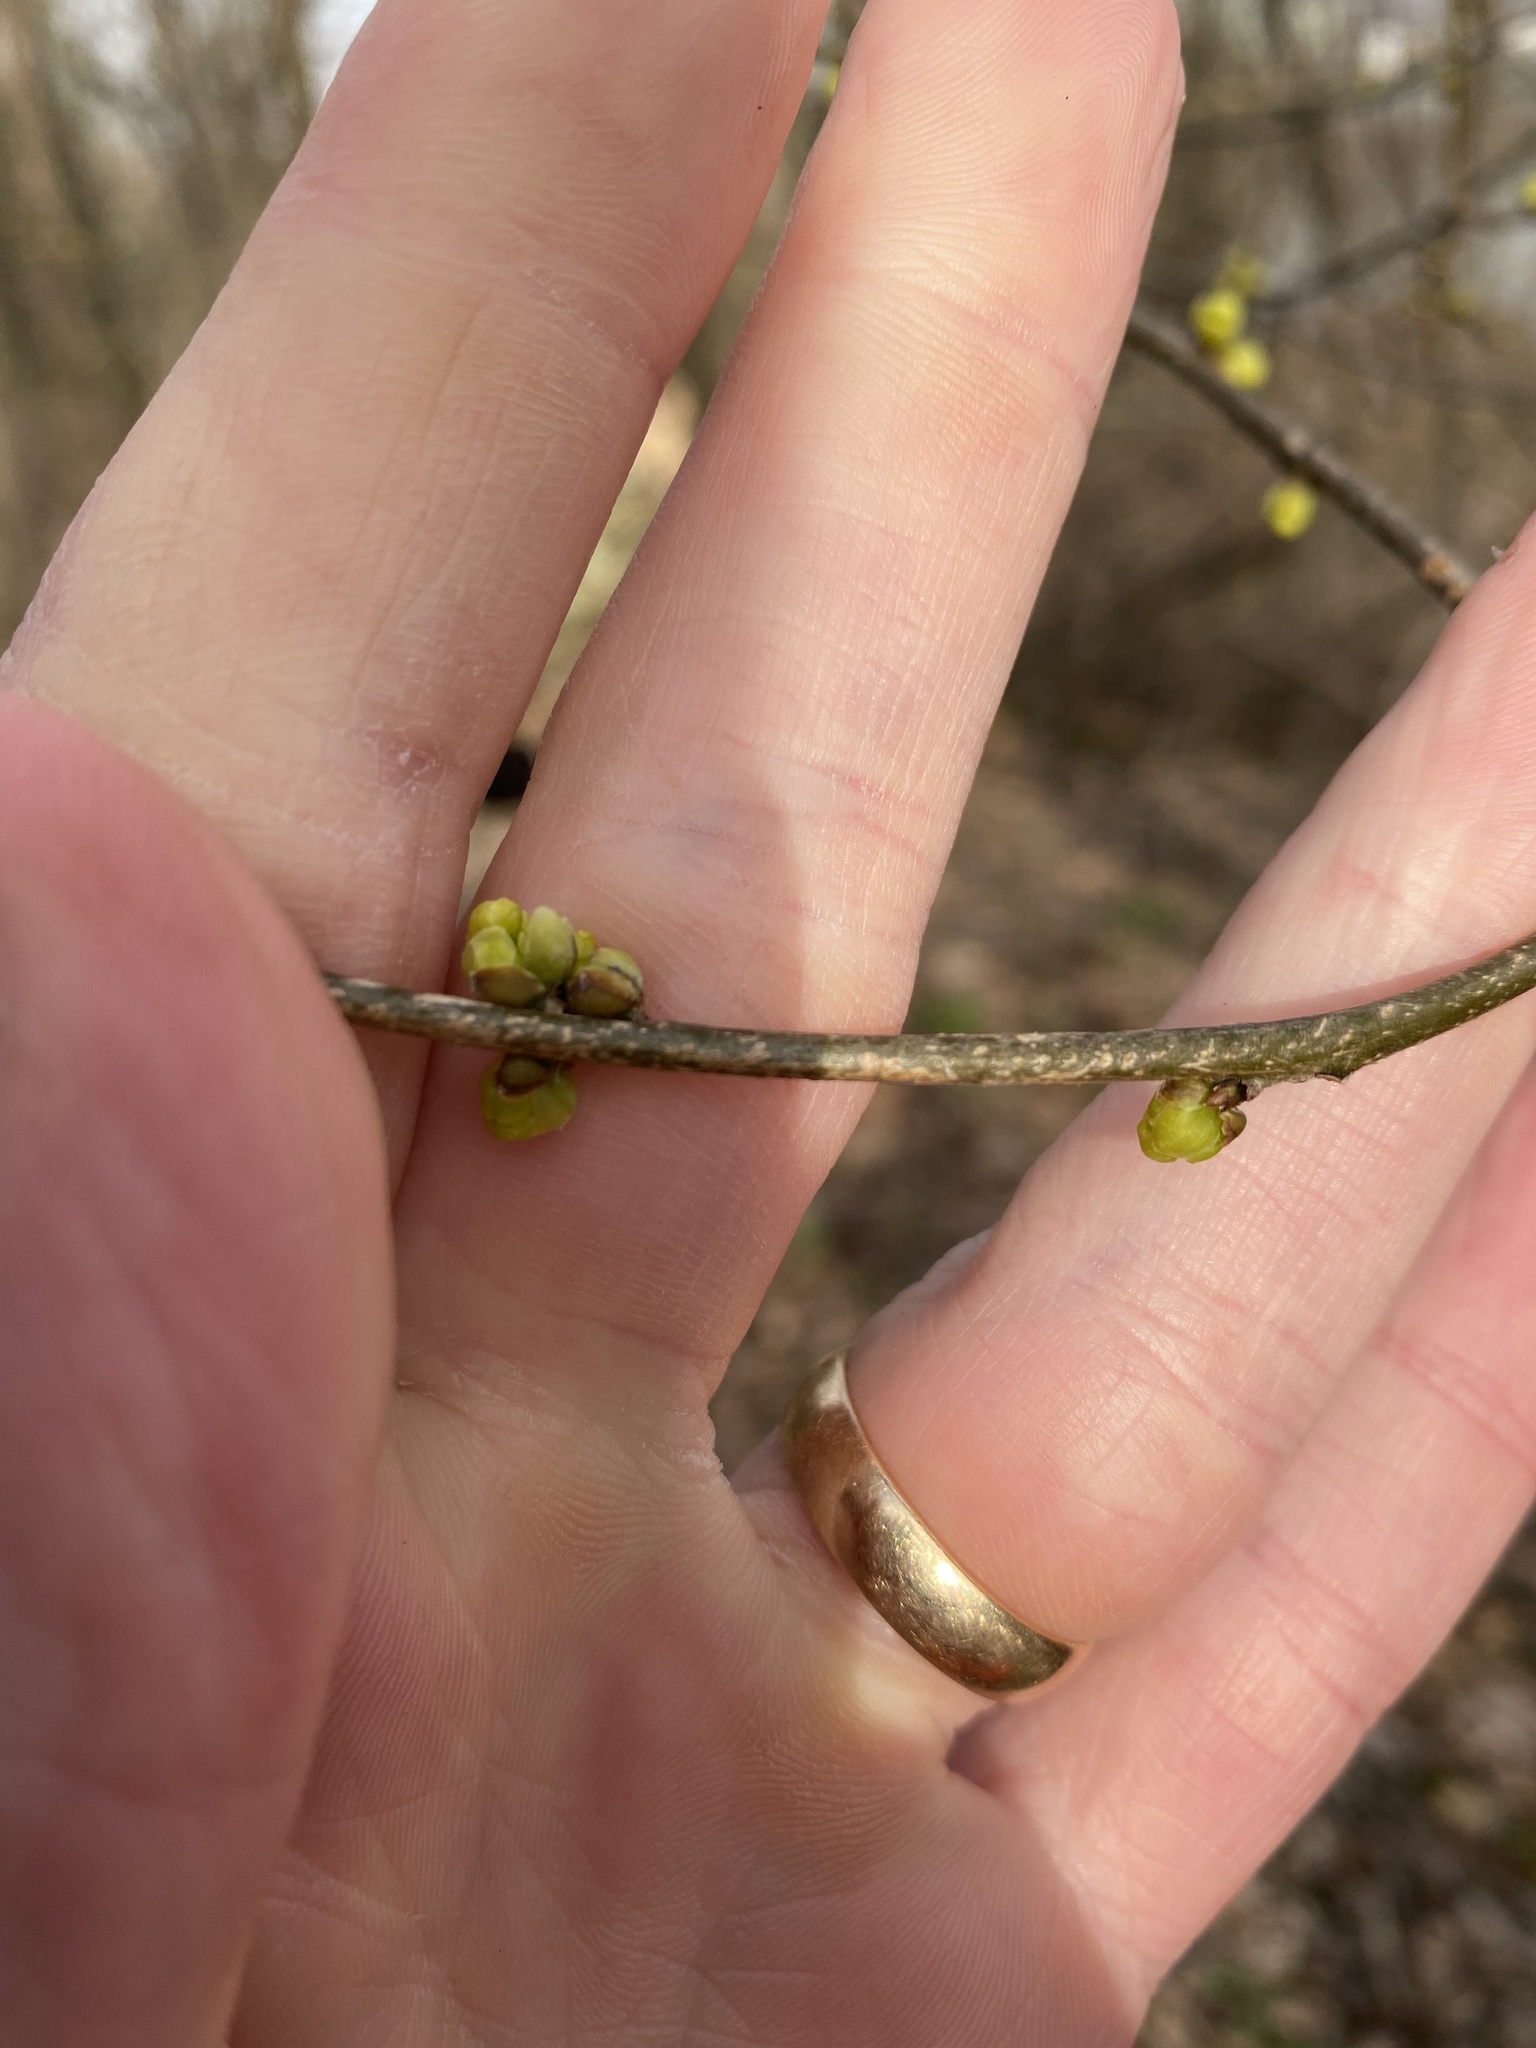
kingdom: Plantae
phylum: Tracheophyta
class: Magnoliopsida
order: Laurales
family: Lauraceae
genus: Lindera
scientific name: Lindera benzoin
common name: Spicebush
